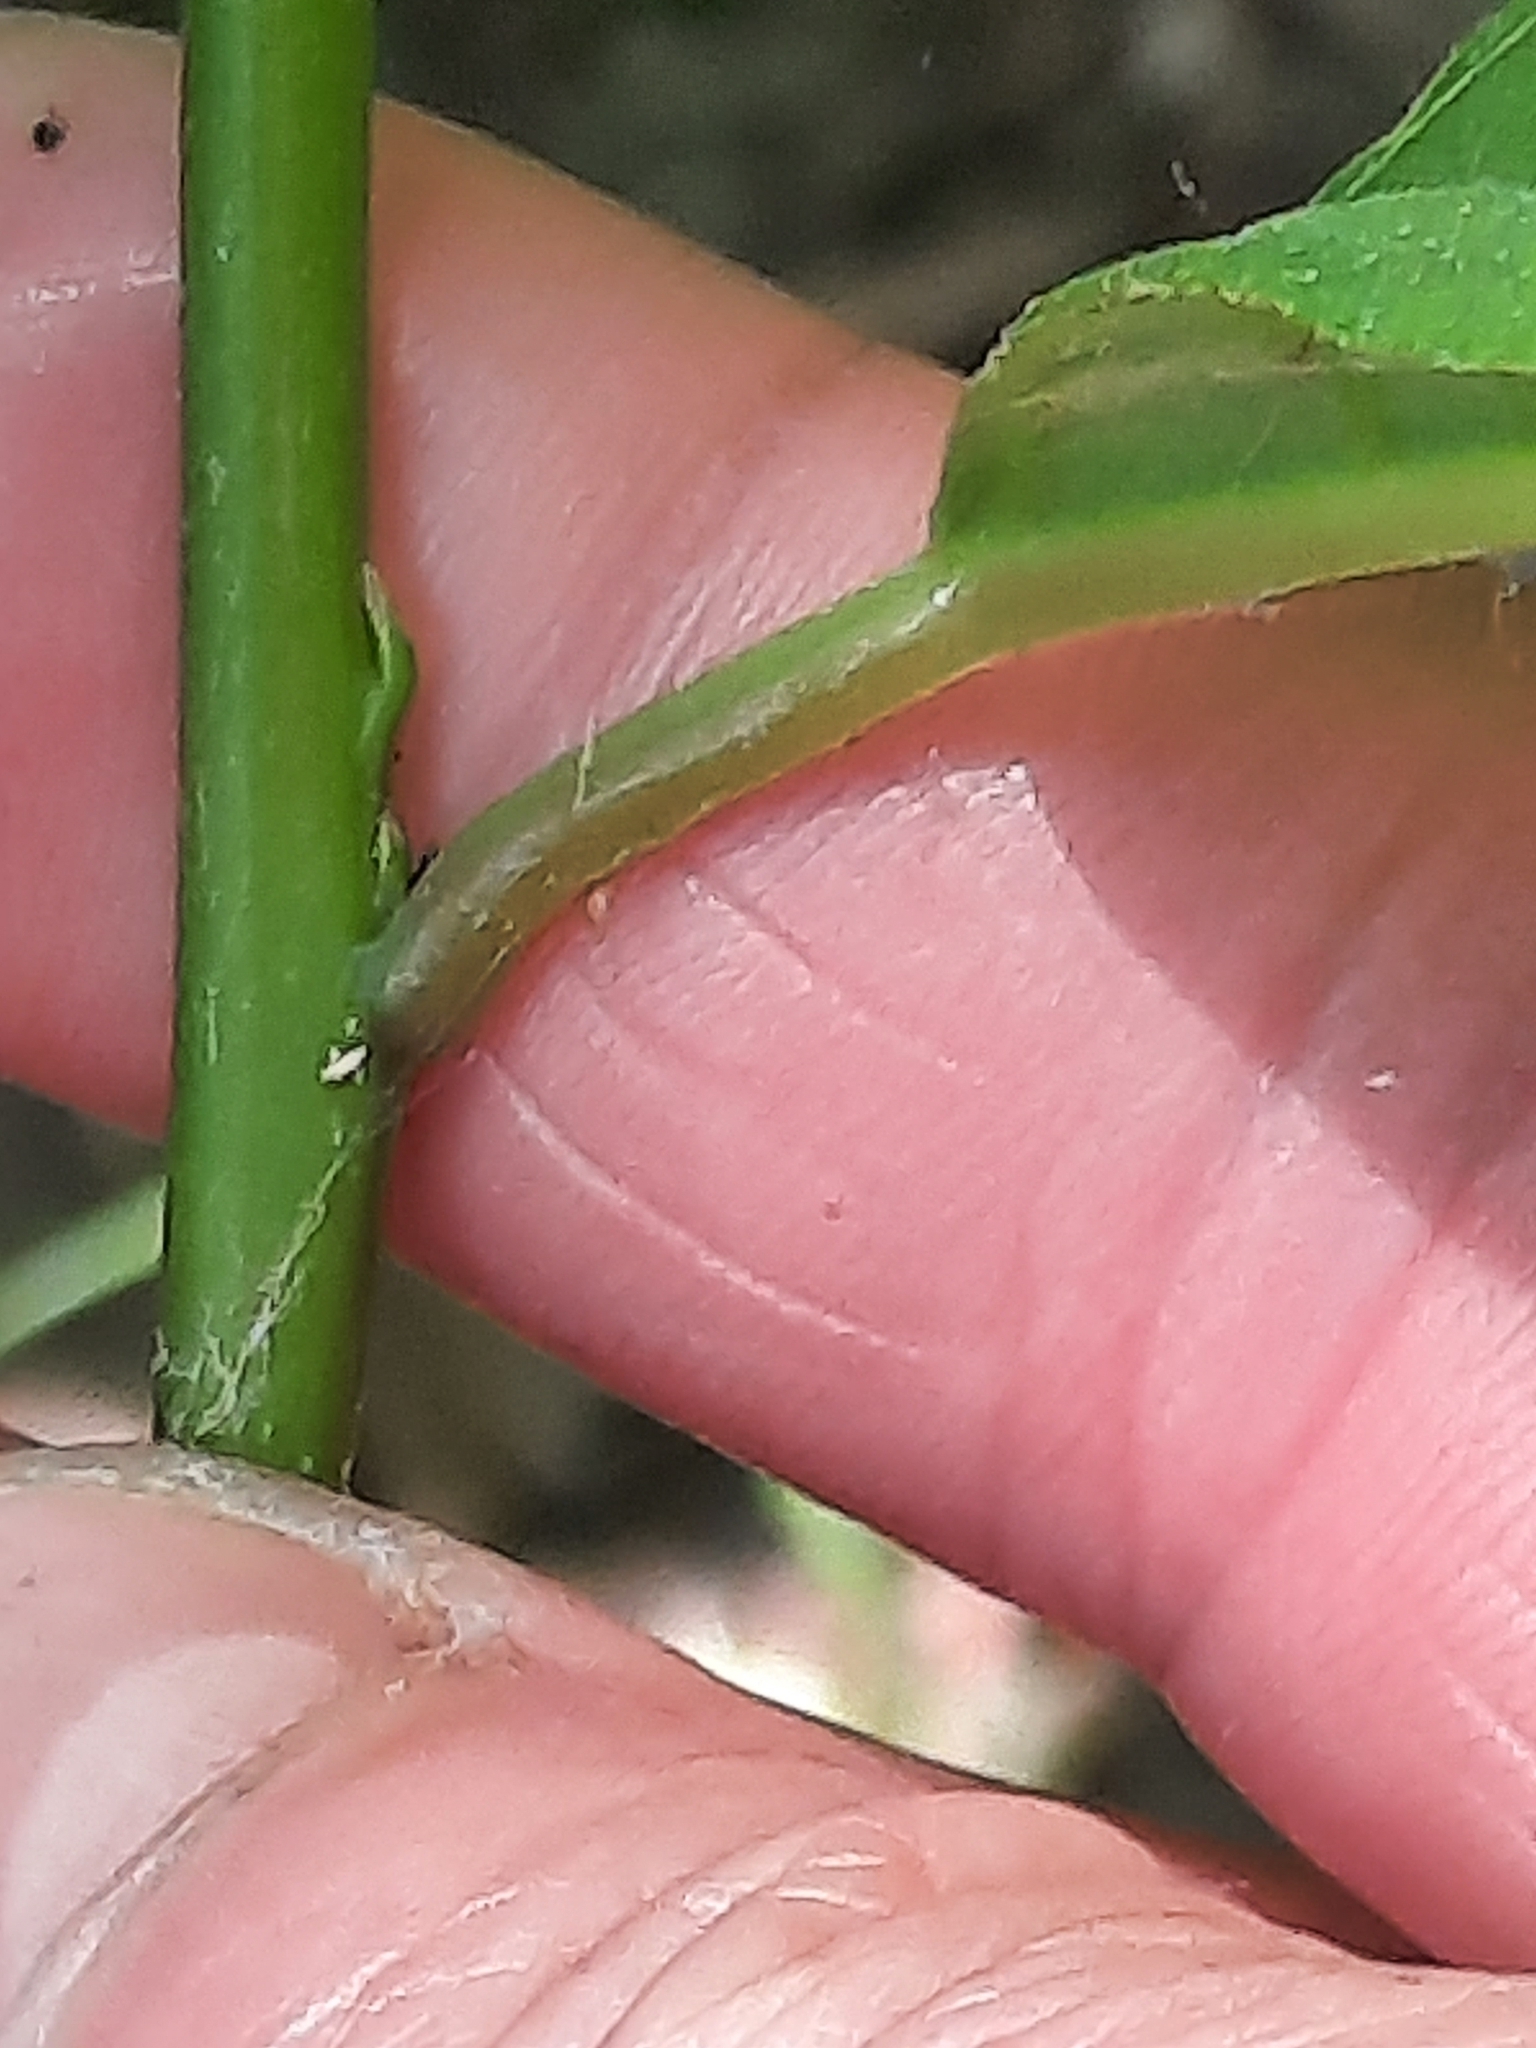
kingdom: Plantae
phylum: Tracheophyta
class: Magnoliopsida
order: Laurales
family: Lauraceae
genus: Lindera
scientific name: Lindera benzoin
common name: Spicebush
